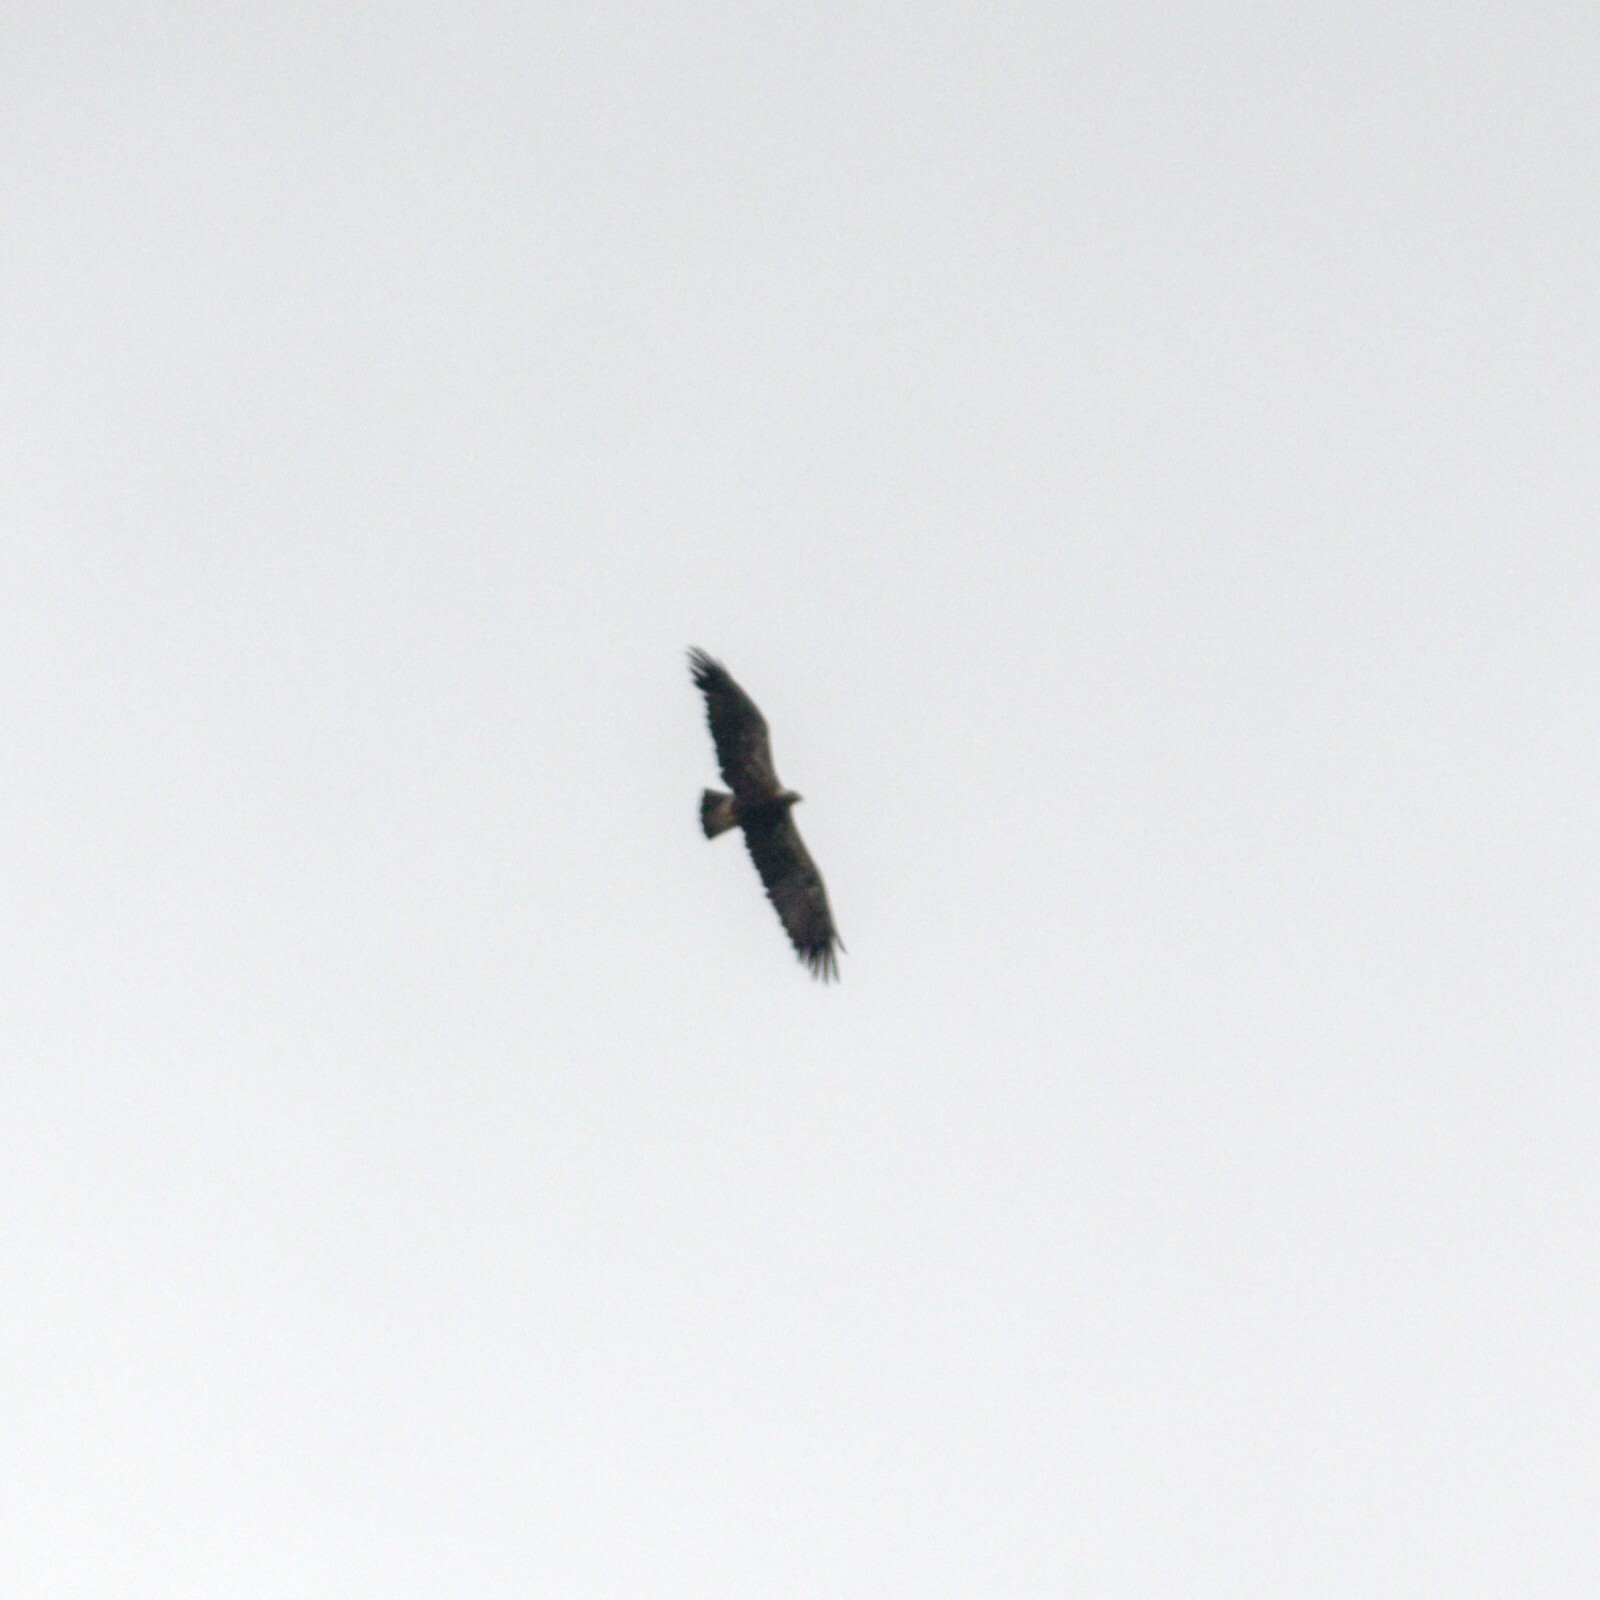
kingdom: Animalia
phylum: Chordata
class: Aves
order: Accipitriformes
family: Accipitridae
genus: Aquila
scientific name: Aquila heliaca
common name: Eastern imperial eagle
